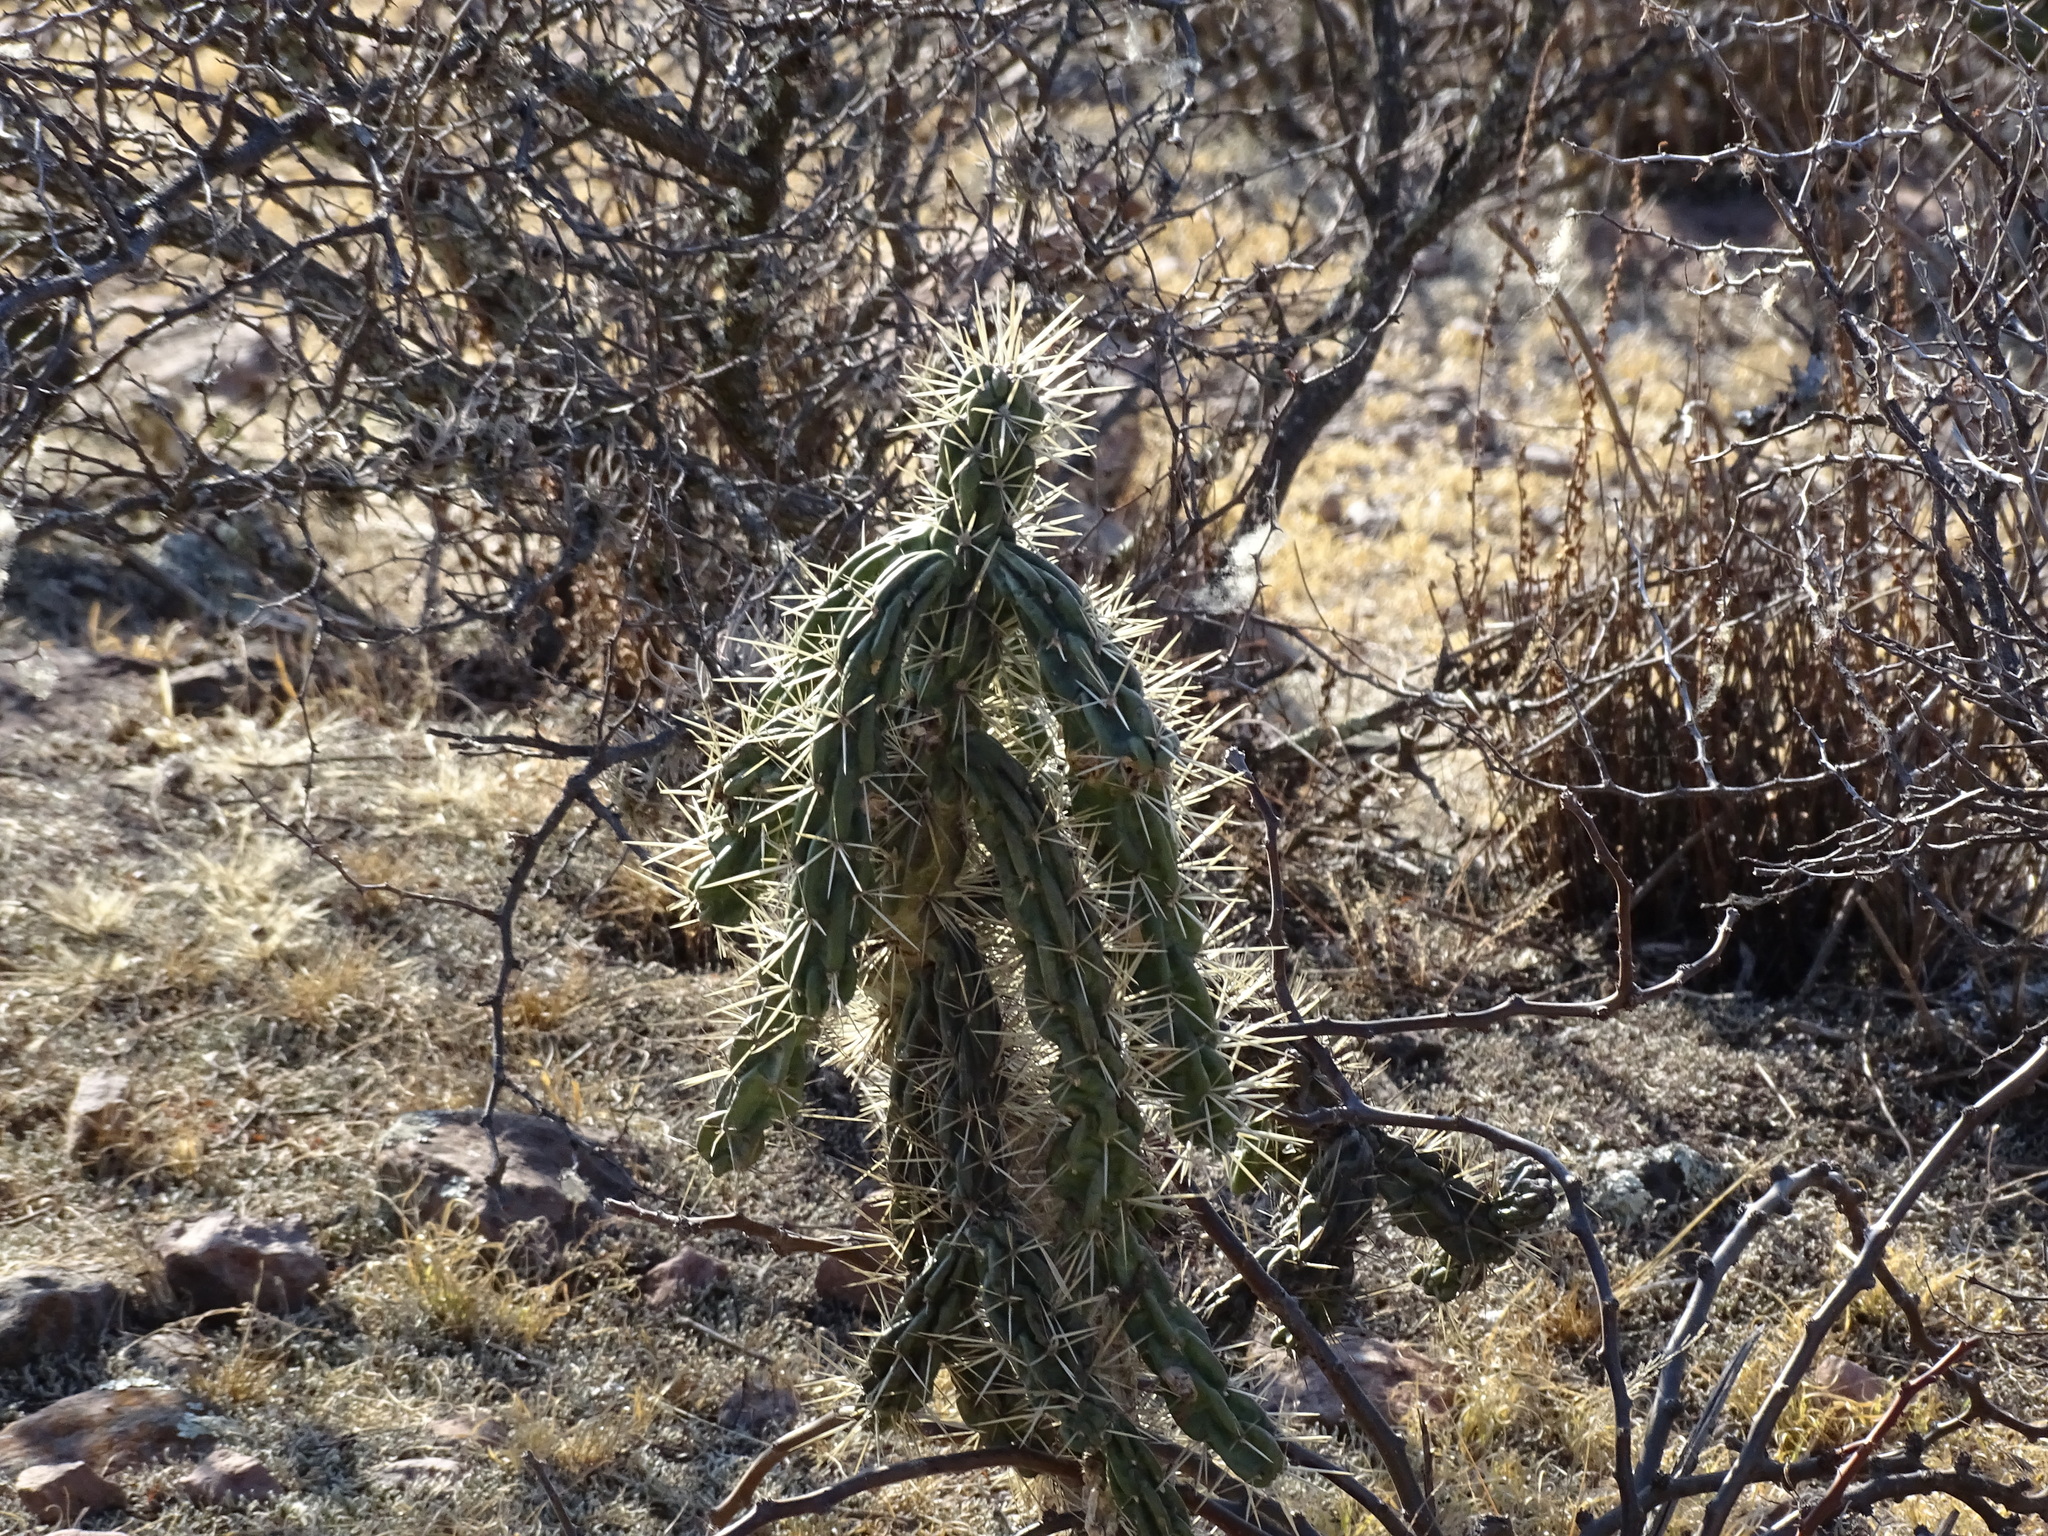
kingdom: Plantae
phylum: Tracheophyta
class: Magnoliopsida
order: Caryophyllales
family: Cactaceae
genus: Cylindropuntia
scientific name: Cylindropuntia imbricata
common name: Candelabrum cactus
